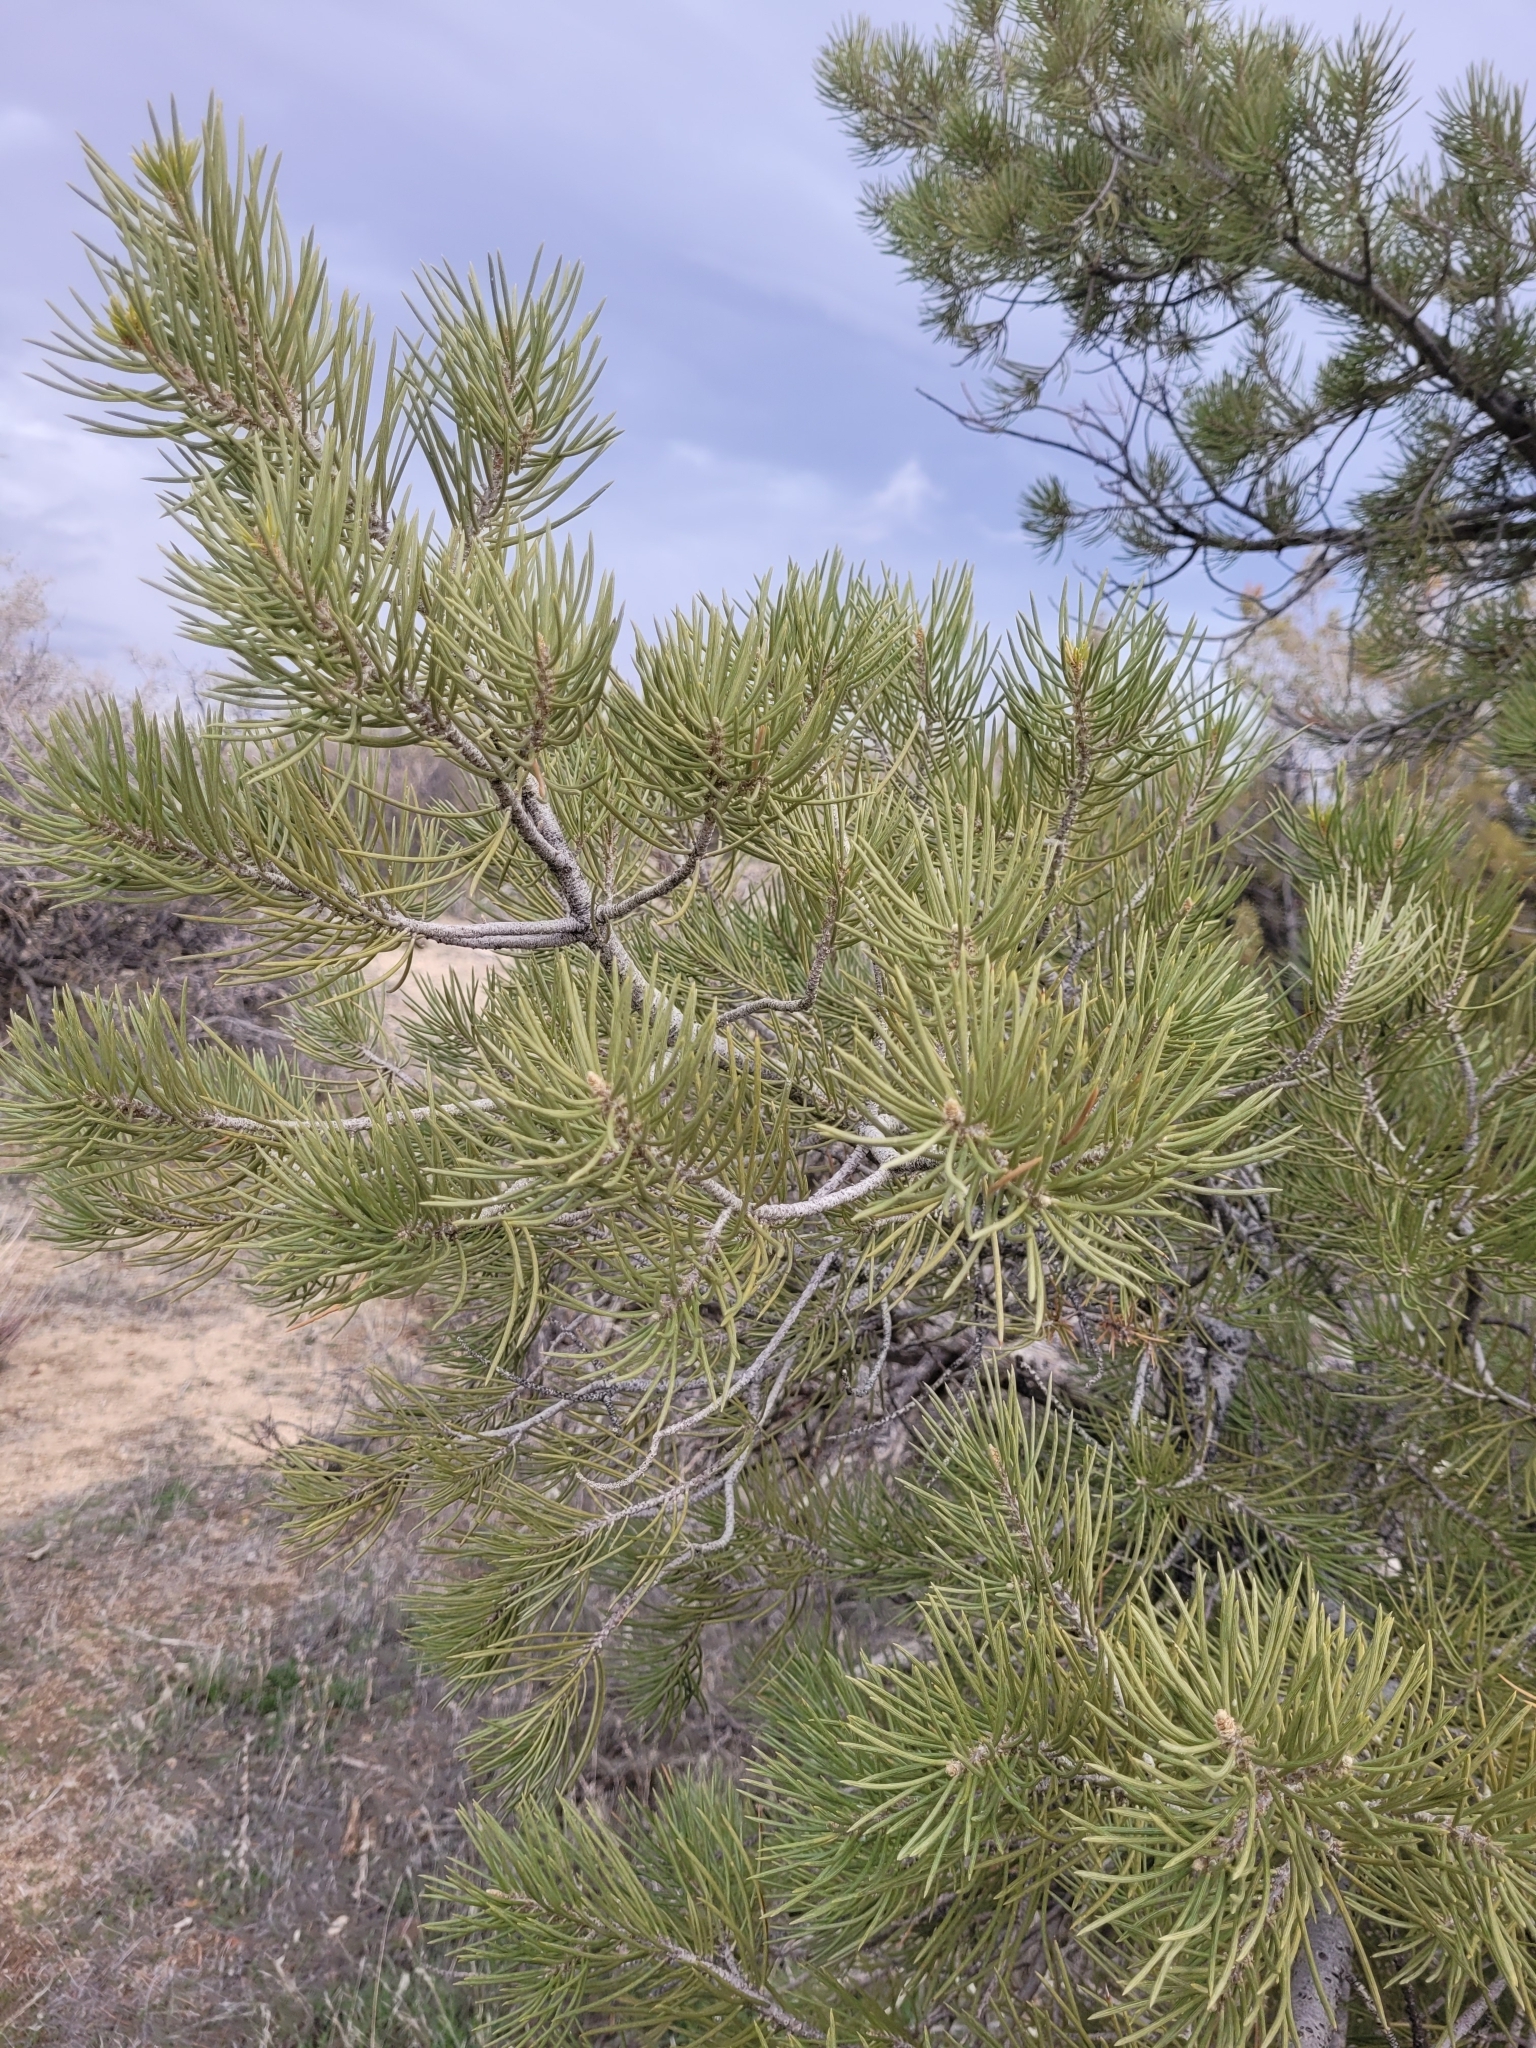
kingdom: Plantae
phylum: Tracheophyta
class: Pinopsida
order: Pinales
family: Pinaceae
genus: Pinus
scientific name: Pinus monophylla
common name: One-leaved nut pine
